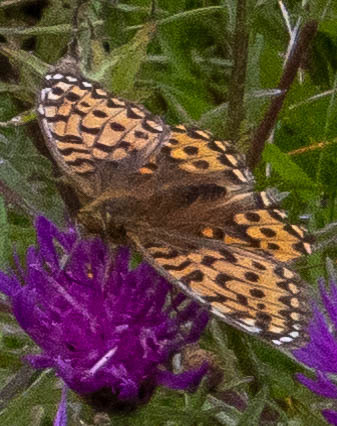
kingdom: Animalia
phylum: Arthropoda
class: Insecta
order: Lepidoptera
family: Nymphalidae
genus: Speyeria
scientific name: Speyeria aglaja
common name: Dark green fritillary
